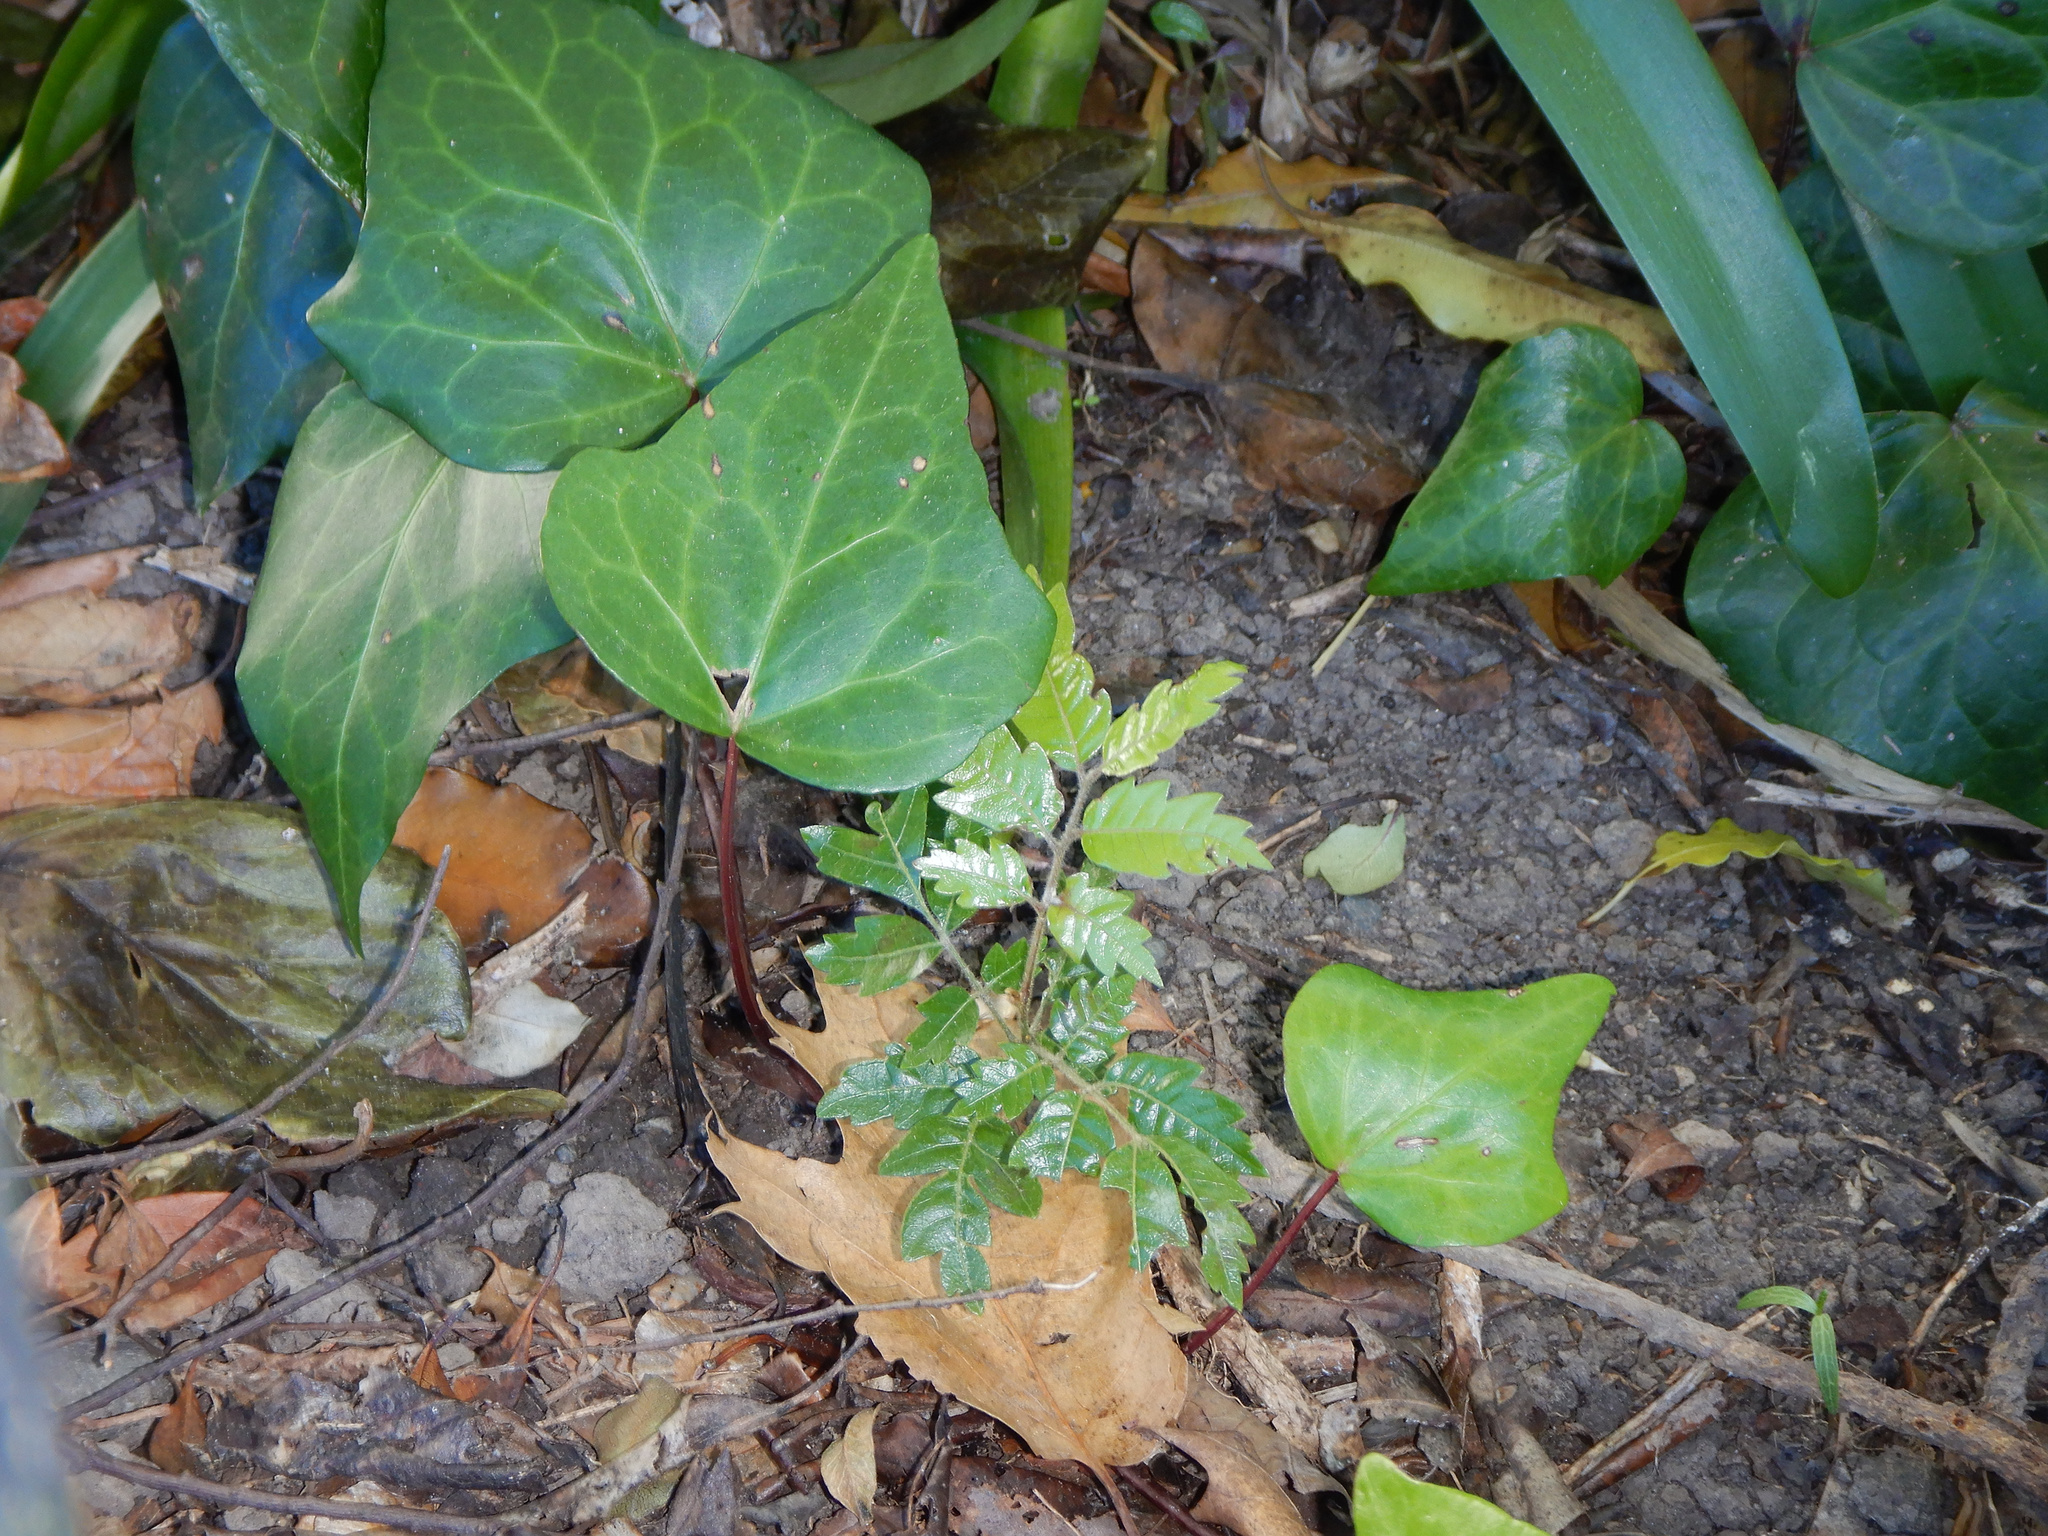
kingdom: Plantae
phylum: Tracheophyta
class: Magnoliopsida
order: Sapindales
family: Sapindaceae
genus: Alectryon
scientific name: Alectryon excelsus
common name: Three kings titoki
